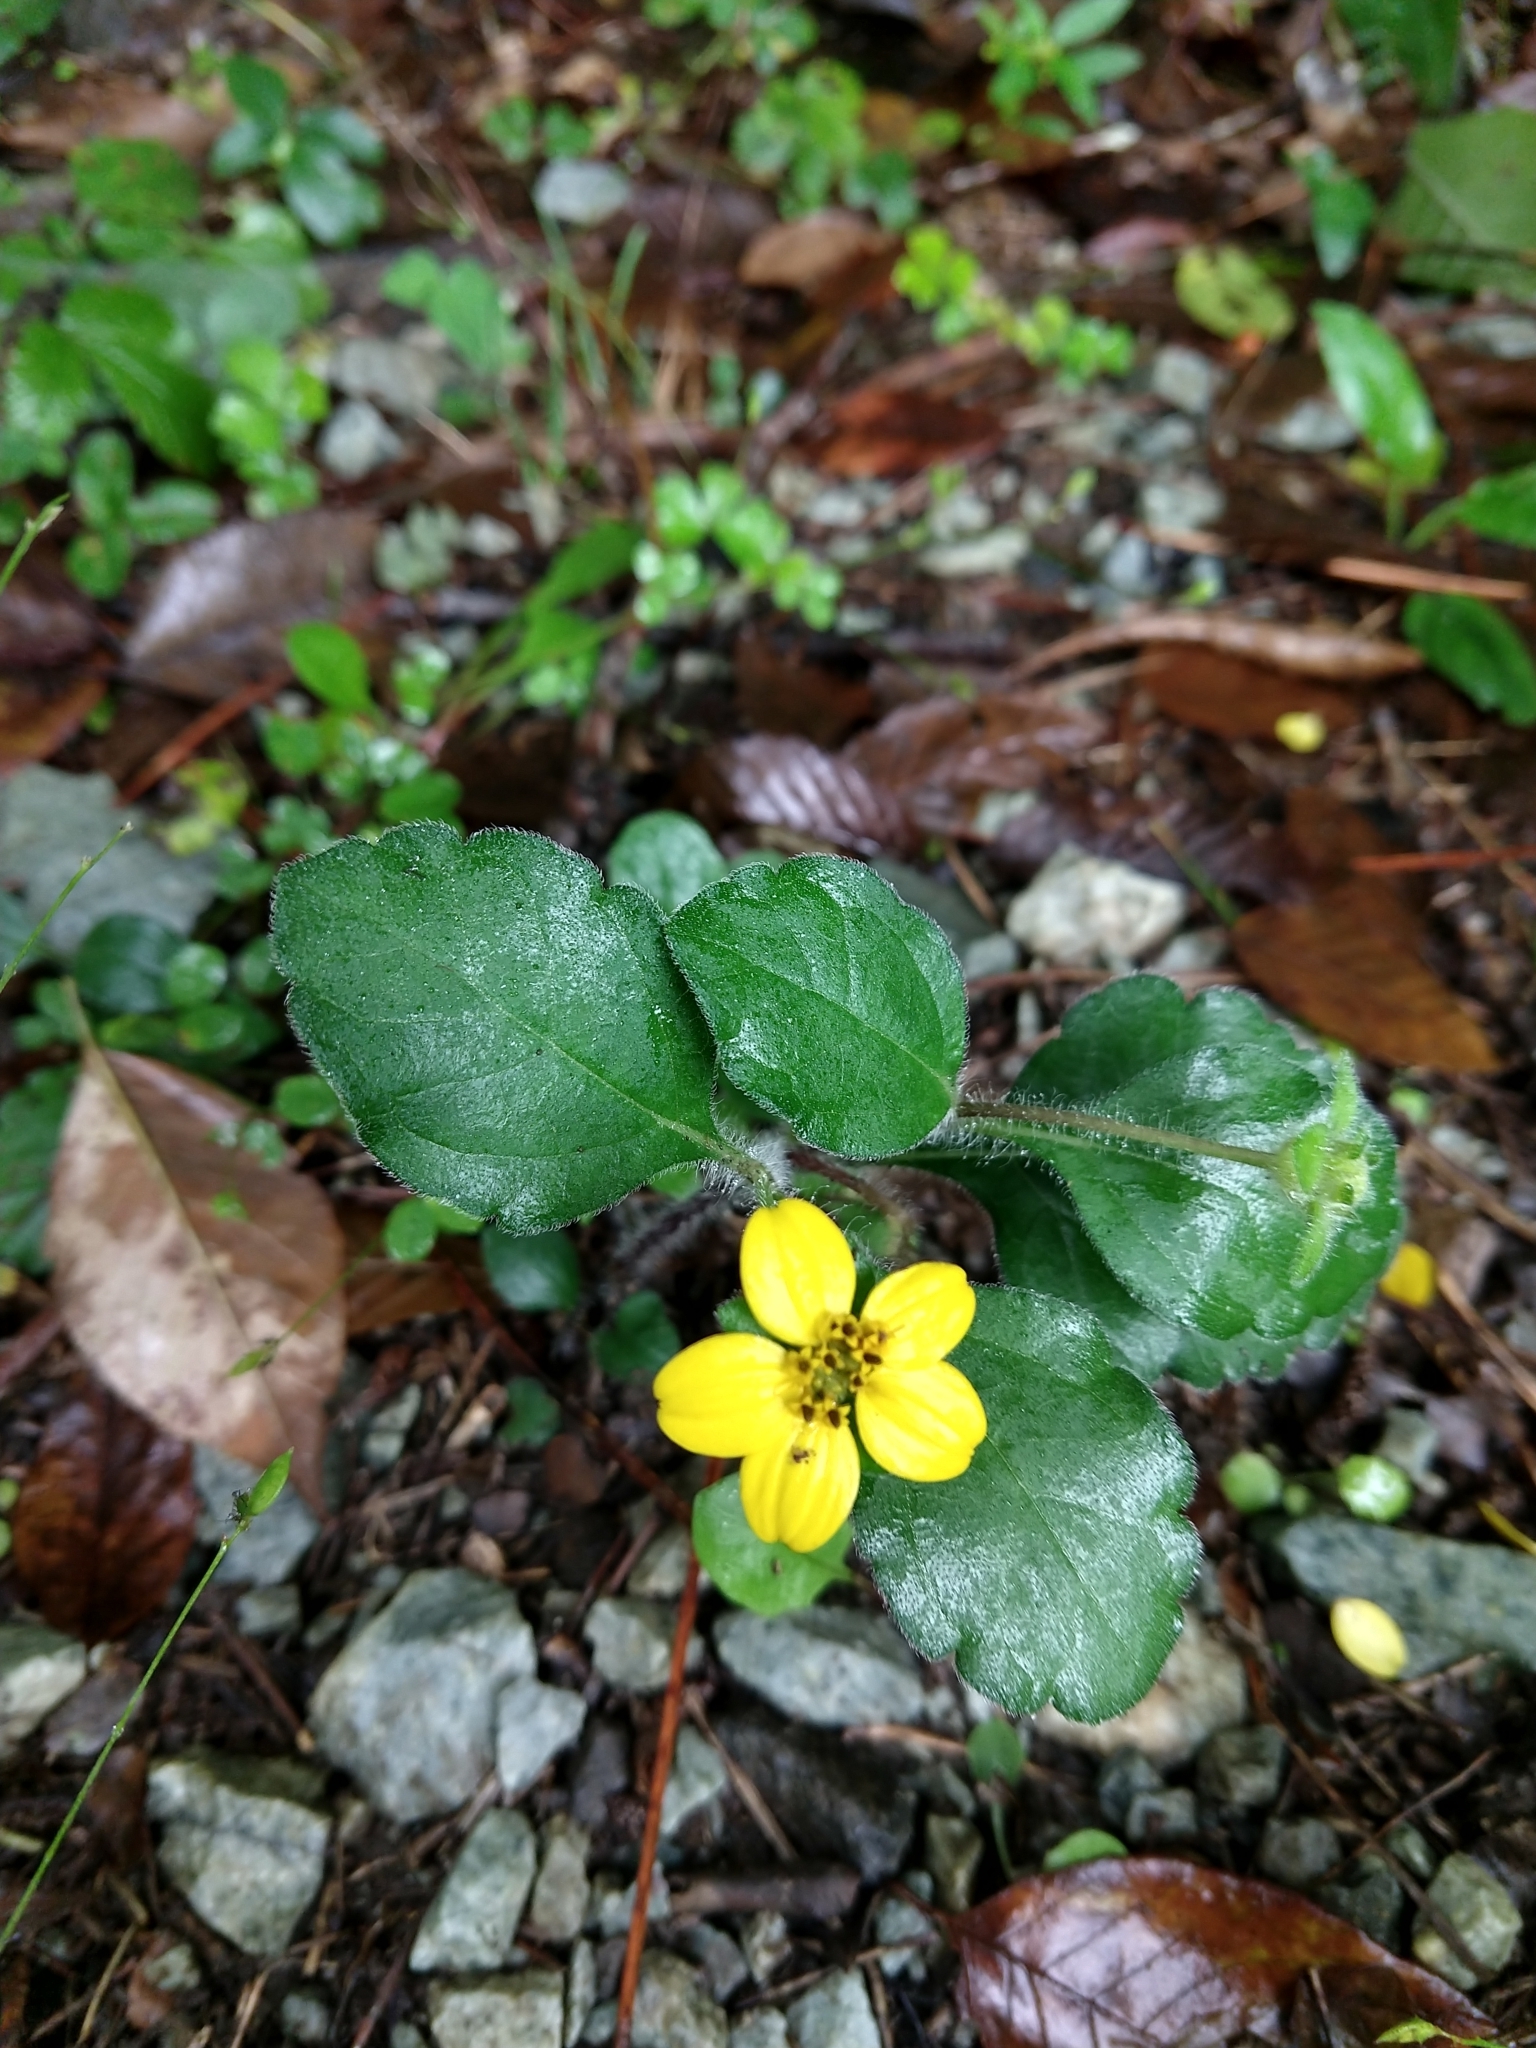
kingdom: Plantae
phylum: Tracheophyta
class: Magnoliopsida
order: Asterales
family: Asteraceae
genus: Chrysogonum
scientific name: Chrysogonum virginianum
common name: Golden-knee
